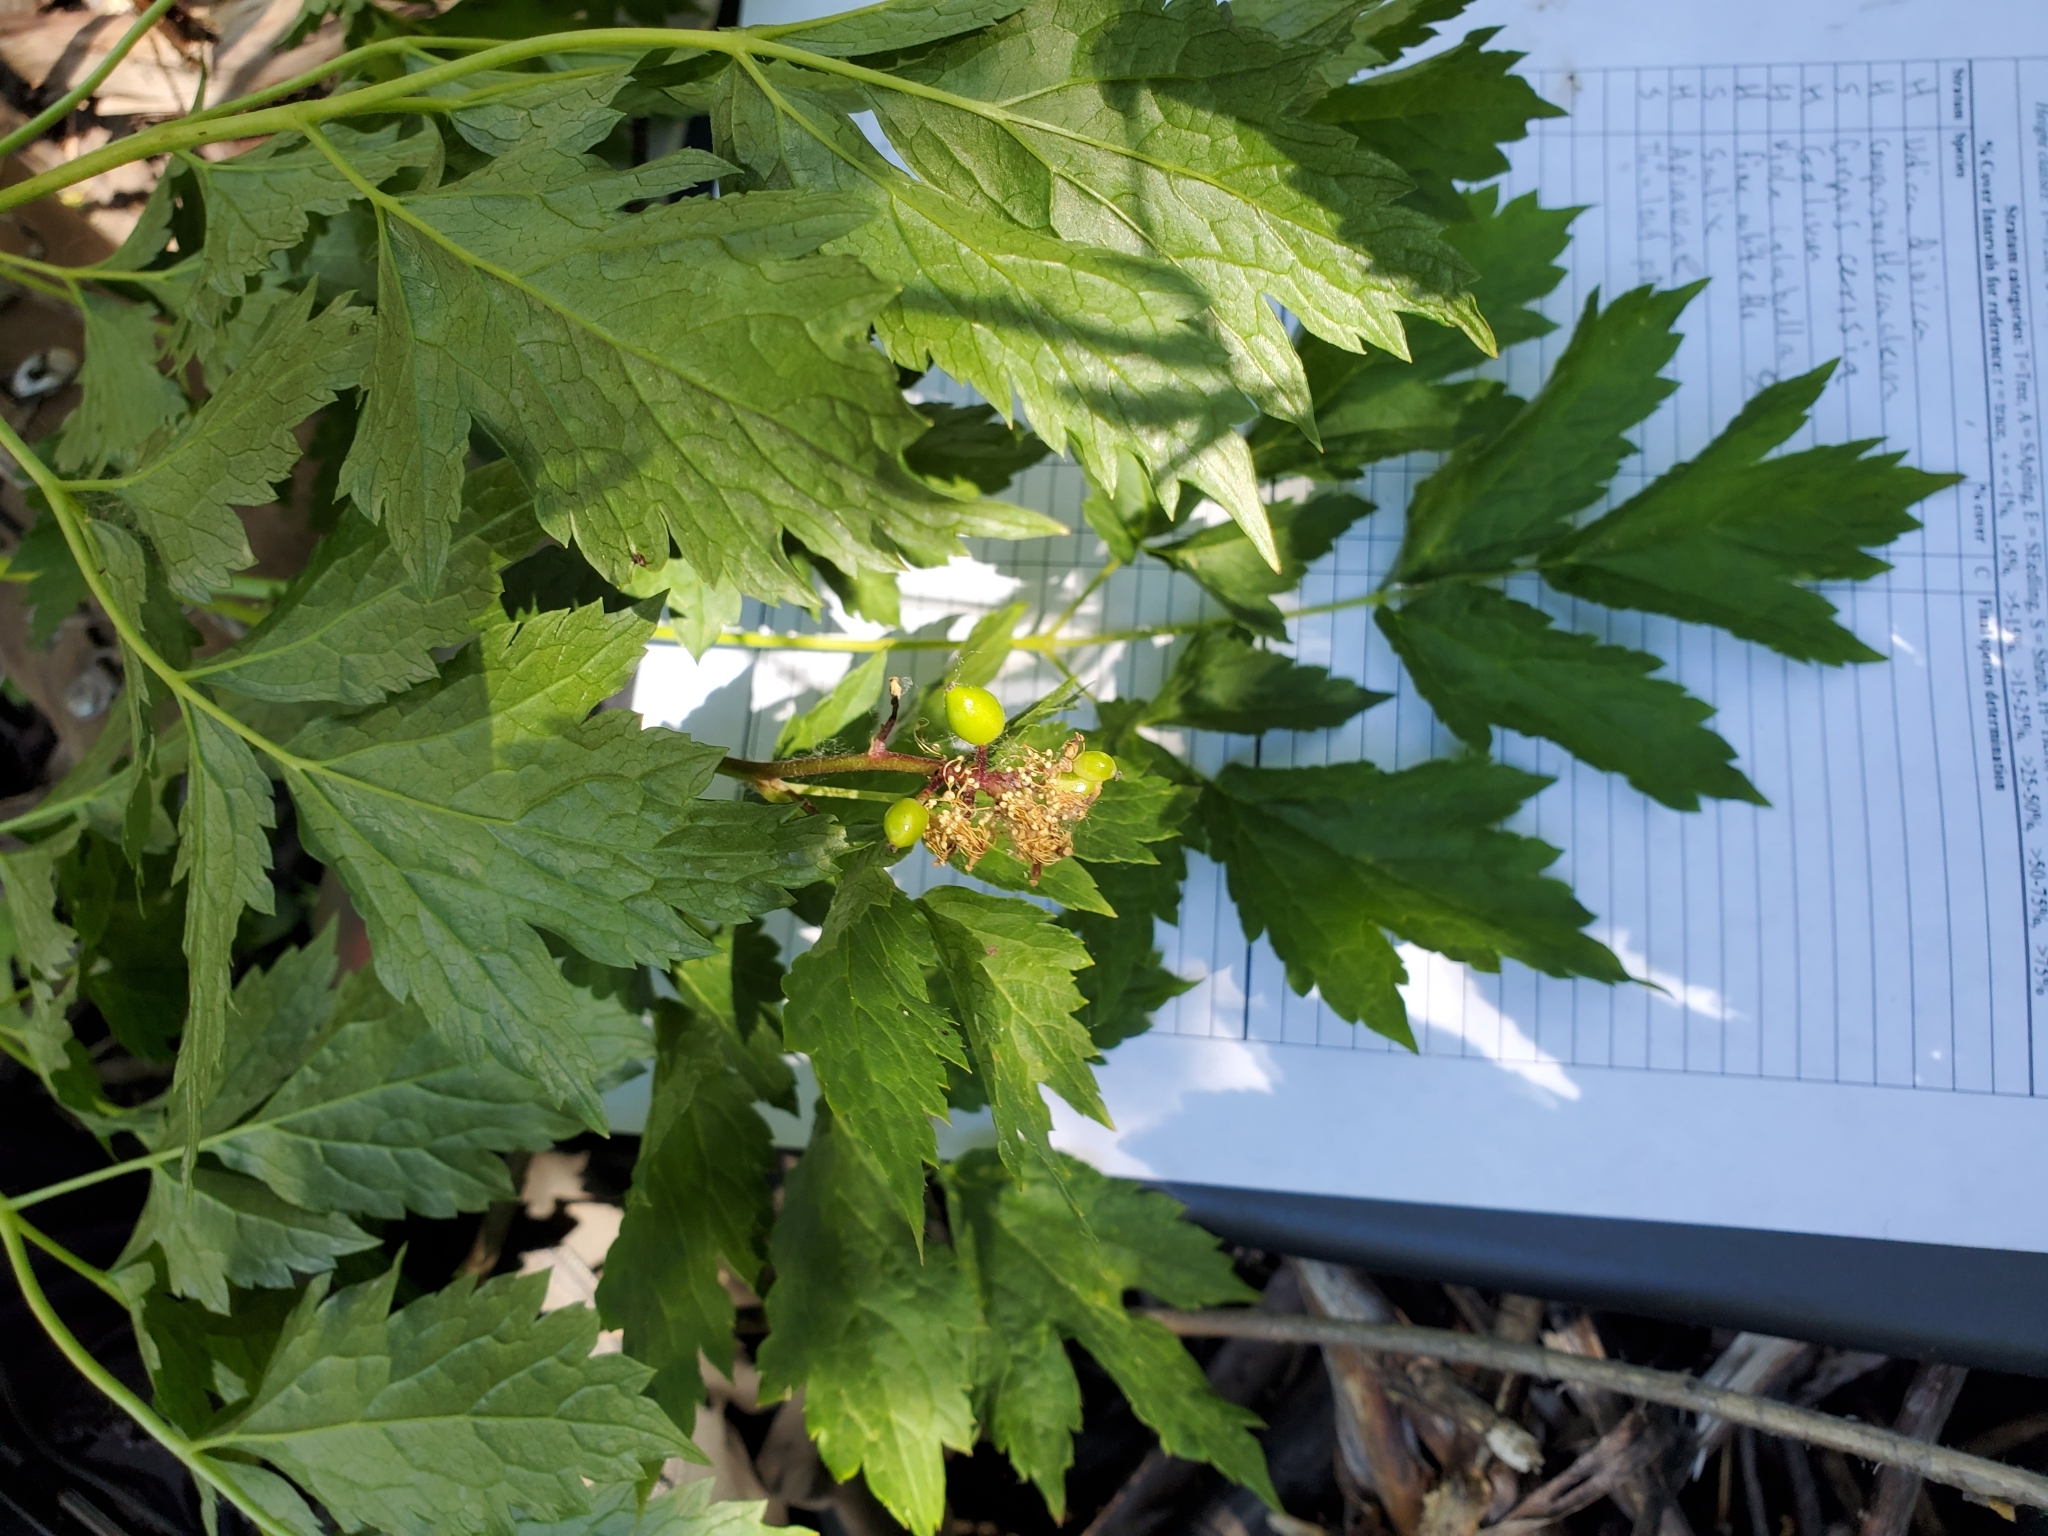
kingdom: Plantae
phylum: Tracheophyta
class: Magnoliopsida
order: Ranunculales
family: Ranunculaceae
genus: Actaea
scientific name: Actaea rubra
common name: Red baneberry
